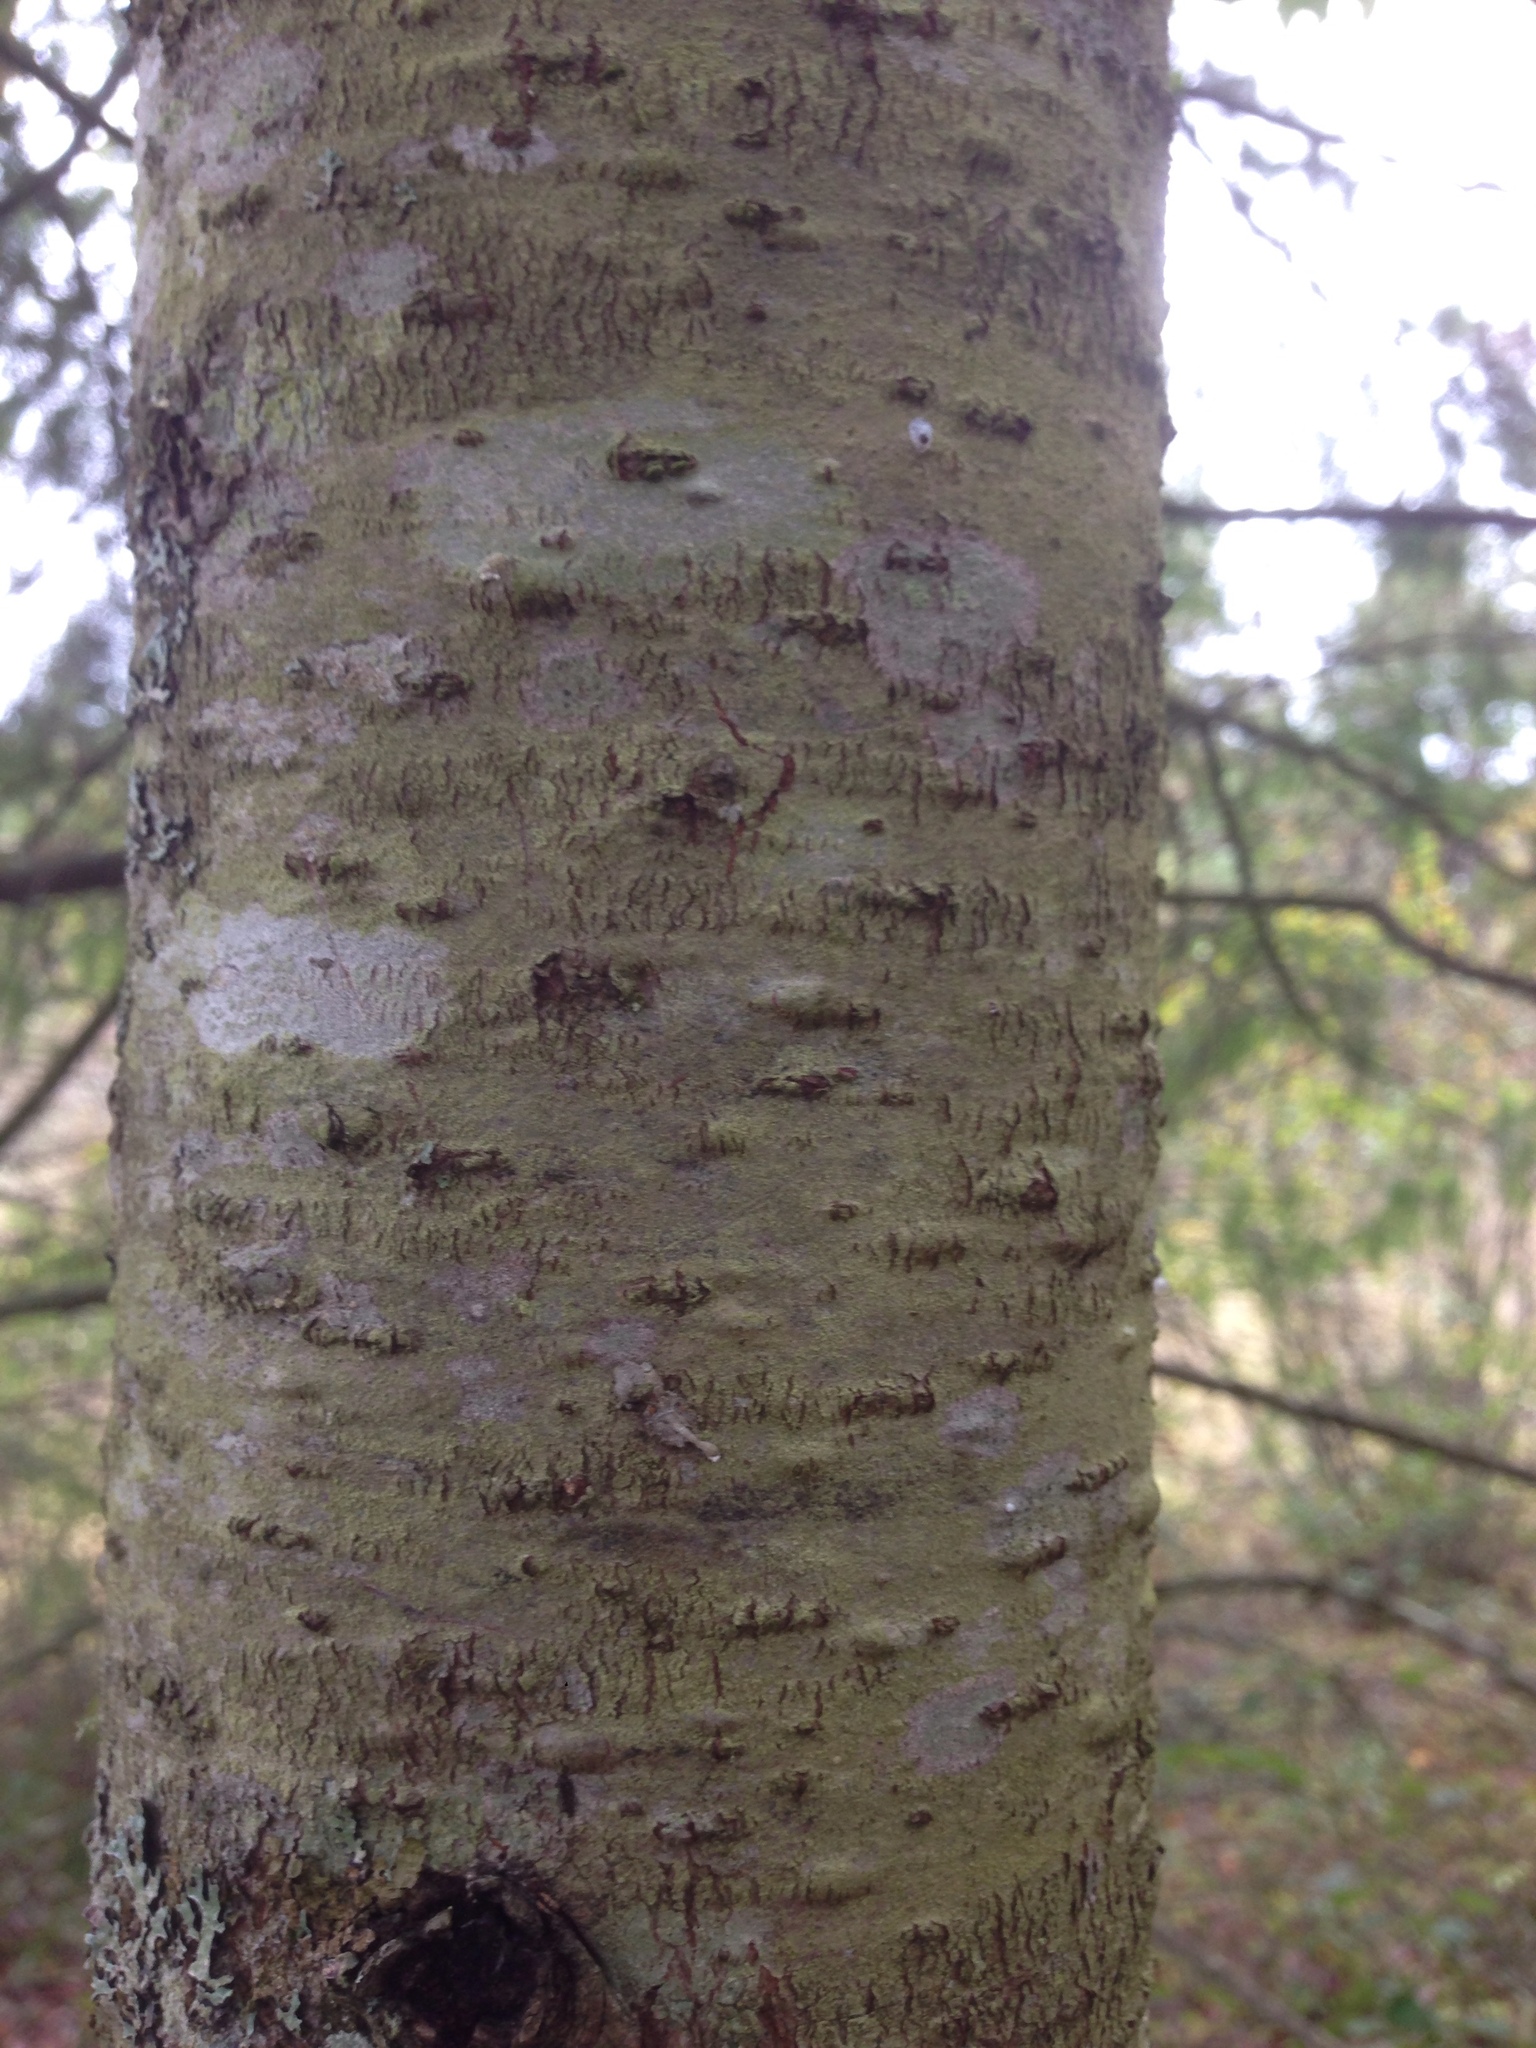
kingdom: Plantae
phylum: Tracheophyta
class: Pinopsida
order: Pinales
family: Pinaceae
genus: Abies
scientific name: Abies grandis
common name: Giant fir
